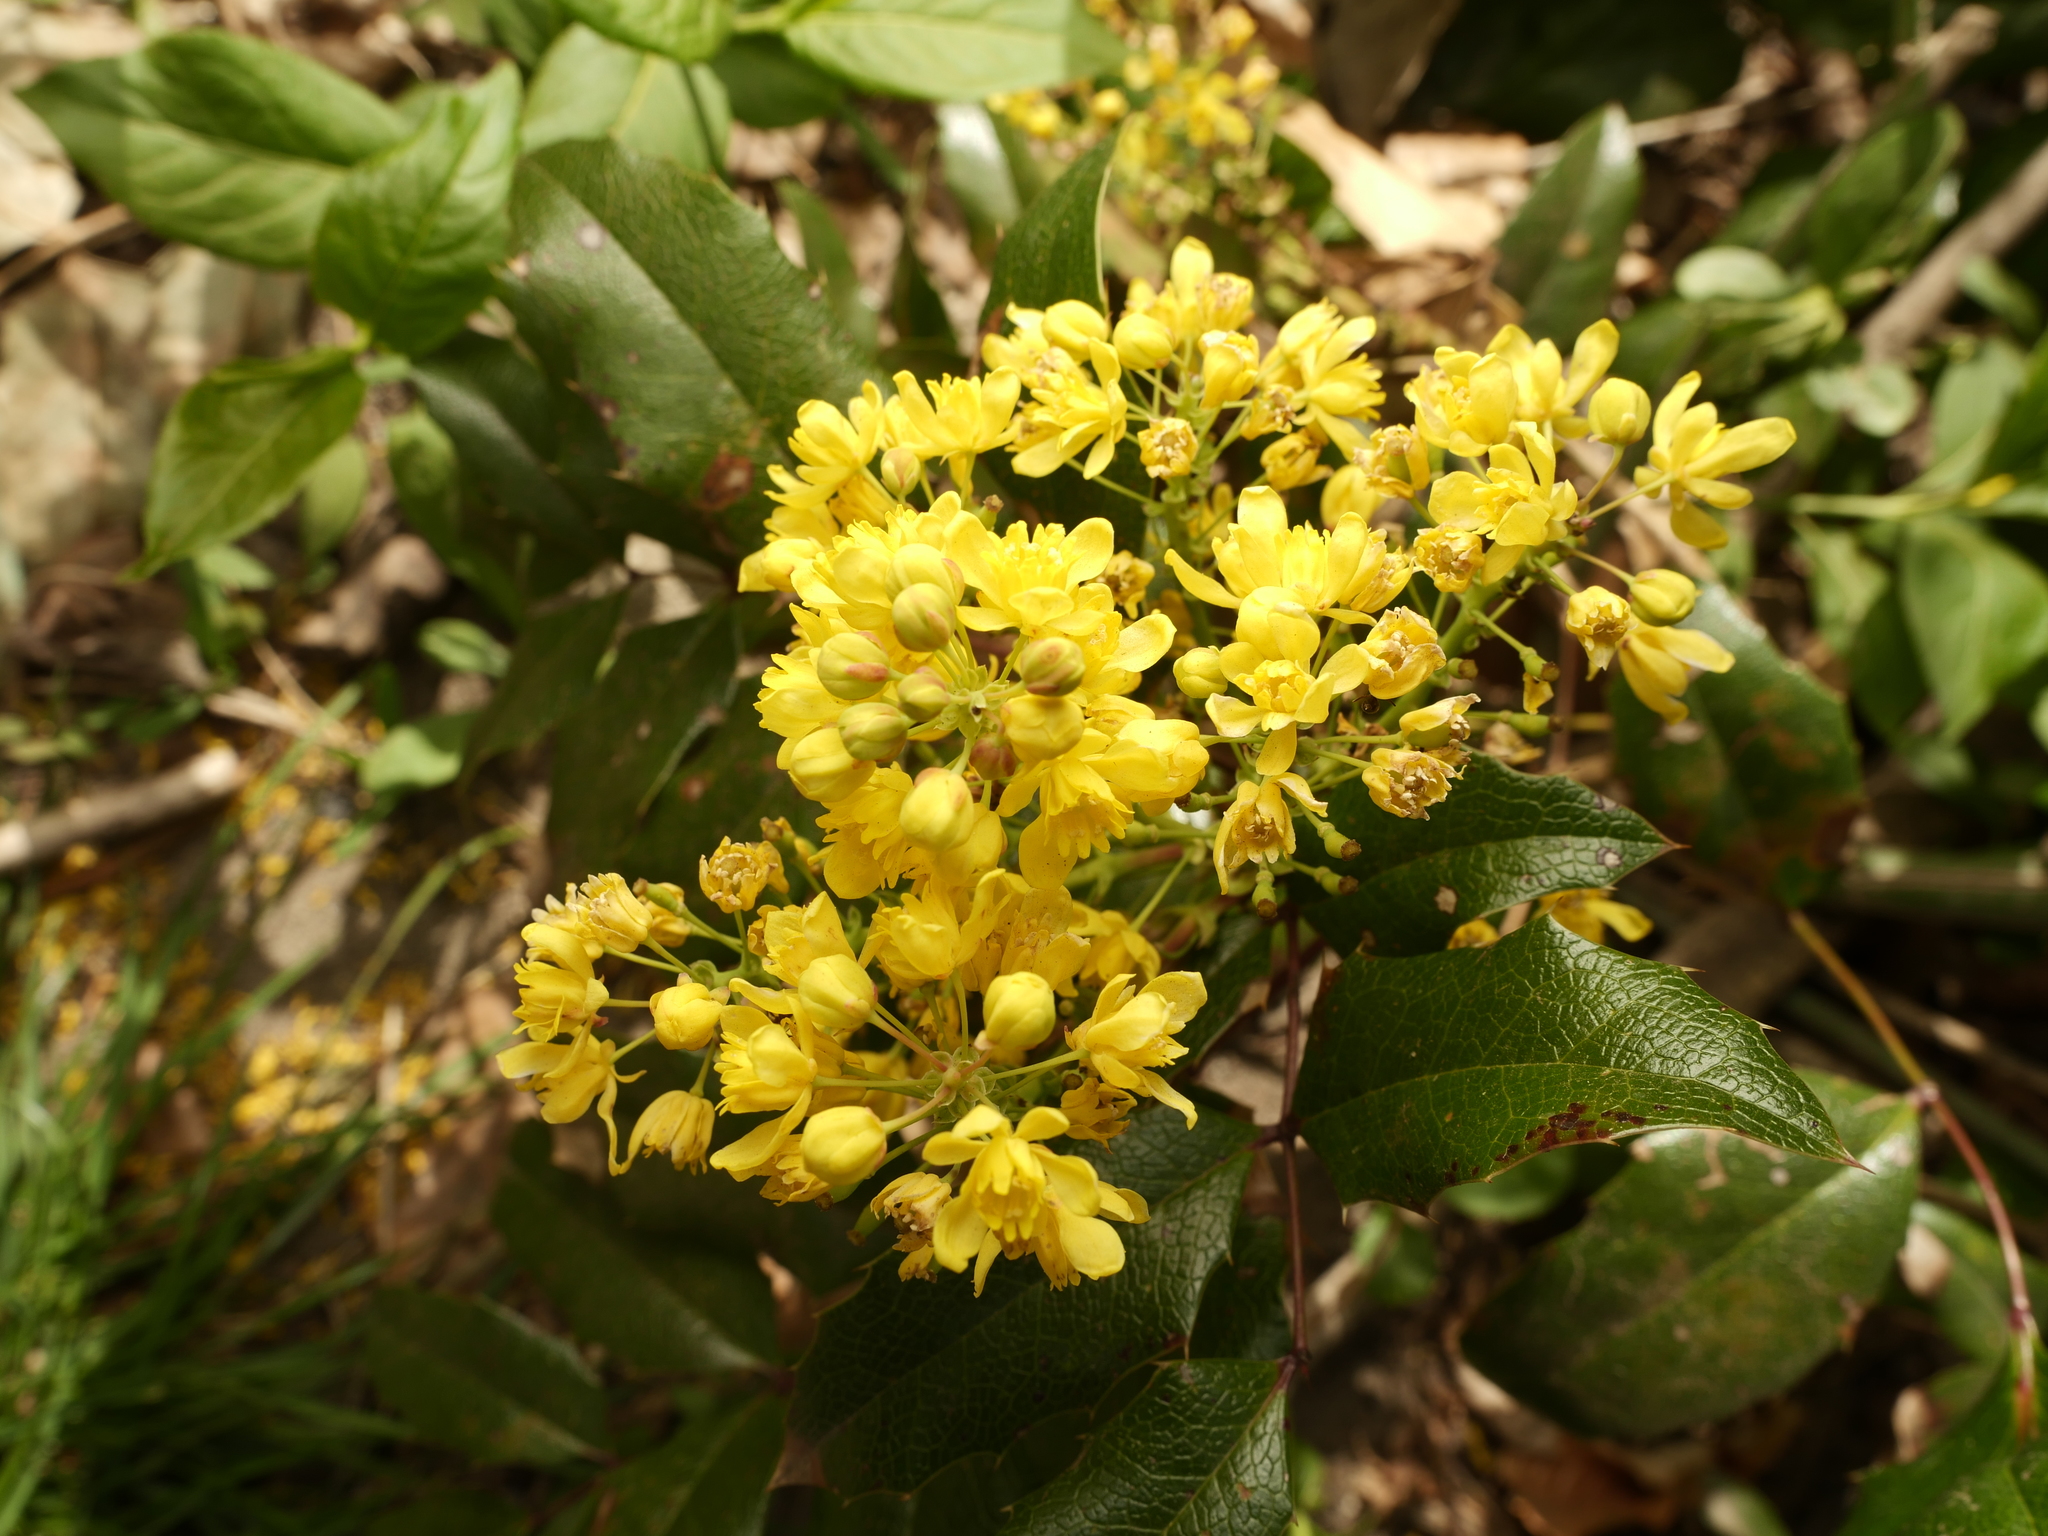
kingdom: Plantae
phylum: Tracheophyta
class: Magnoliopsida
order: Ranunculales
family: Berberidaceae
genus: Mahonia
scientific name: Mahonia aquifolium
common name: Oregon-grape
